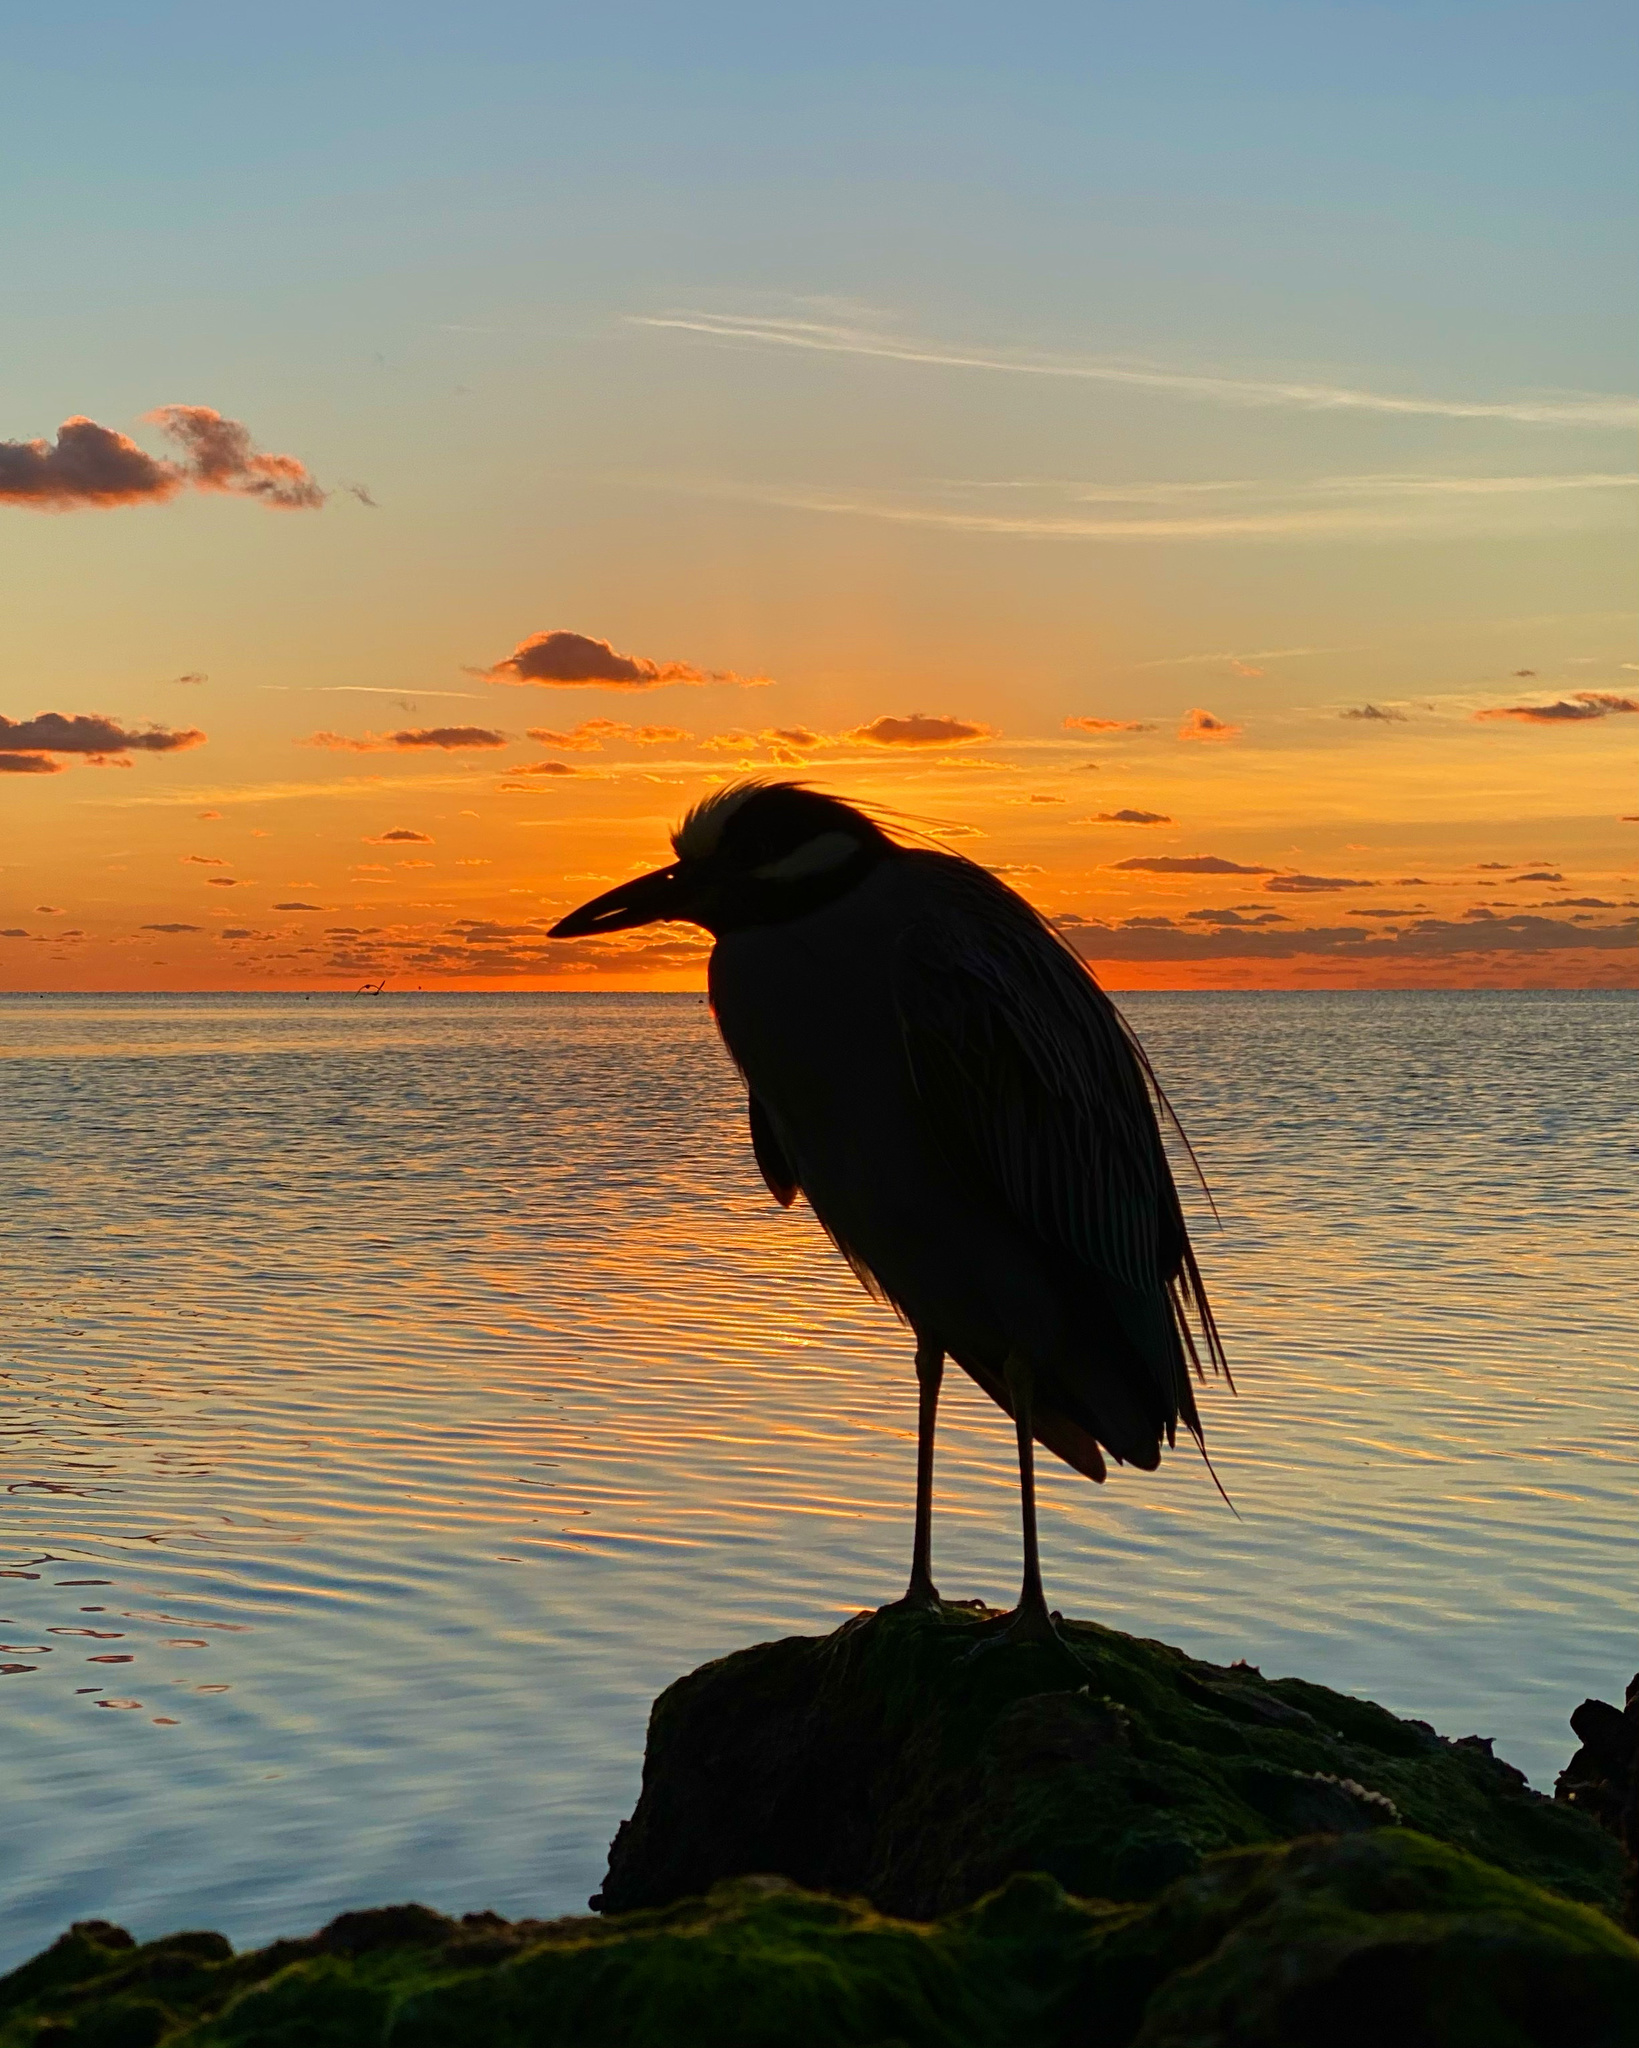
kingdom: Animalia
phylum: Chordata
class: Aves
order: Pelecaniformes
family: Ardeidae
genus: Nyctanassa
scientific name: Nyctanassa violacea
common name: Yellow-crowned night heron
